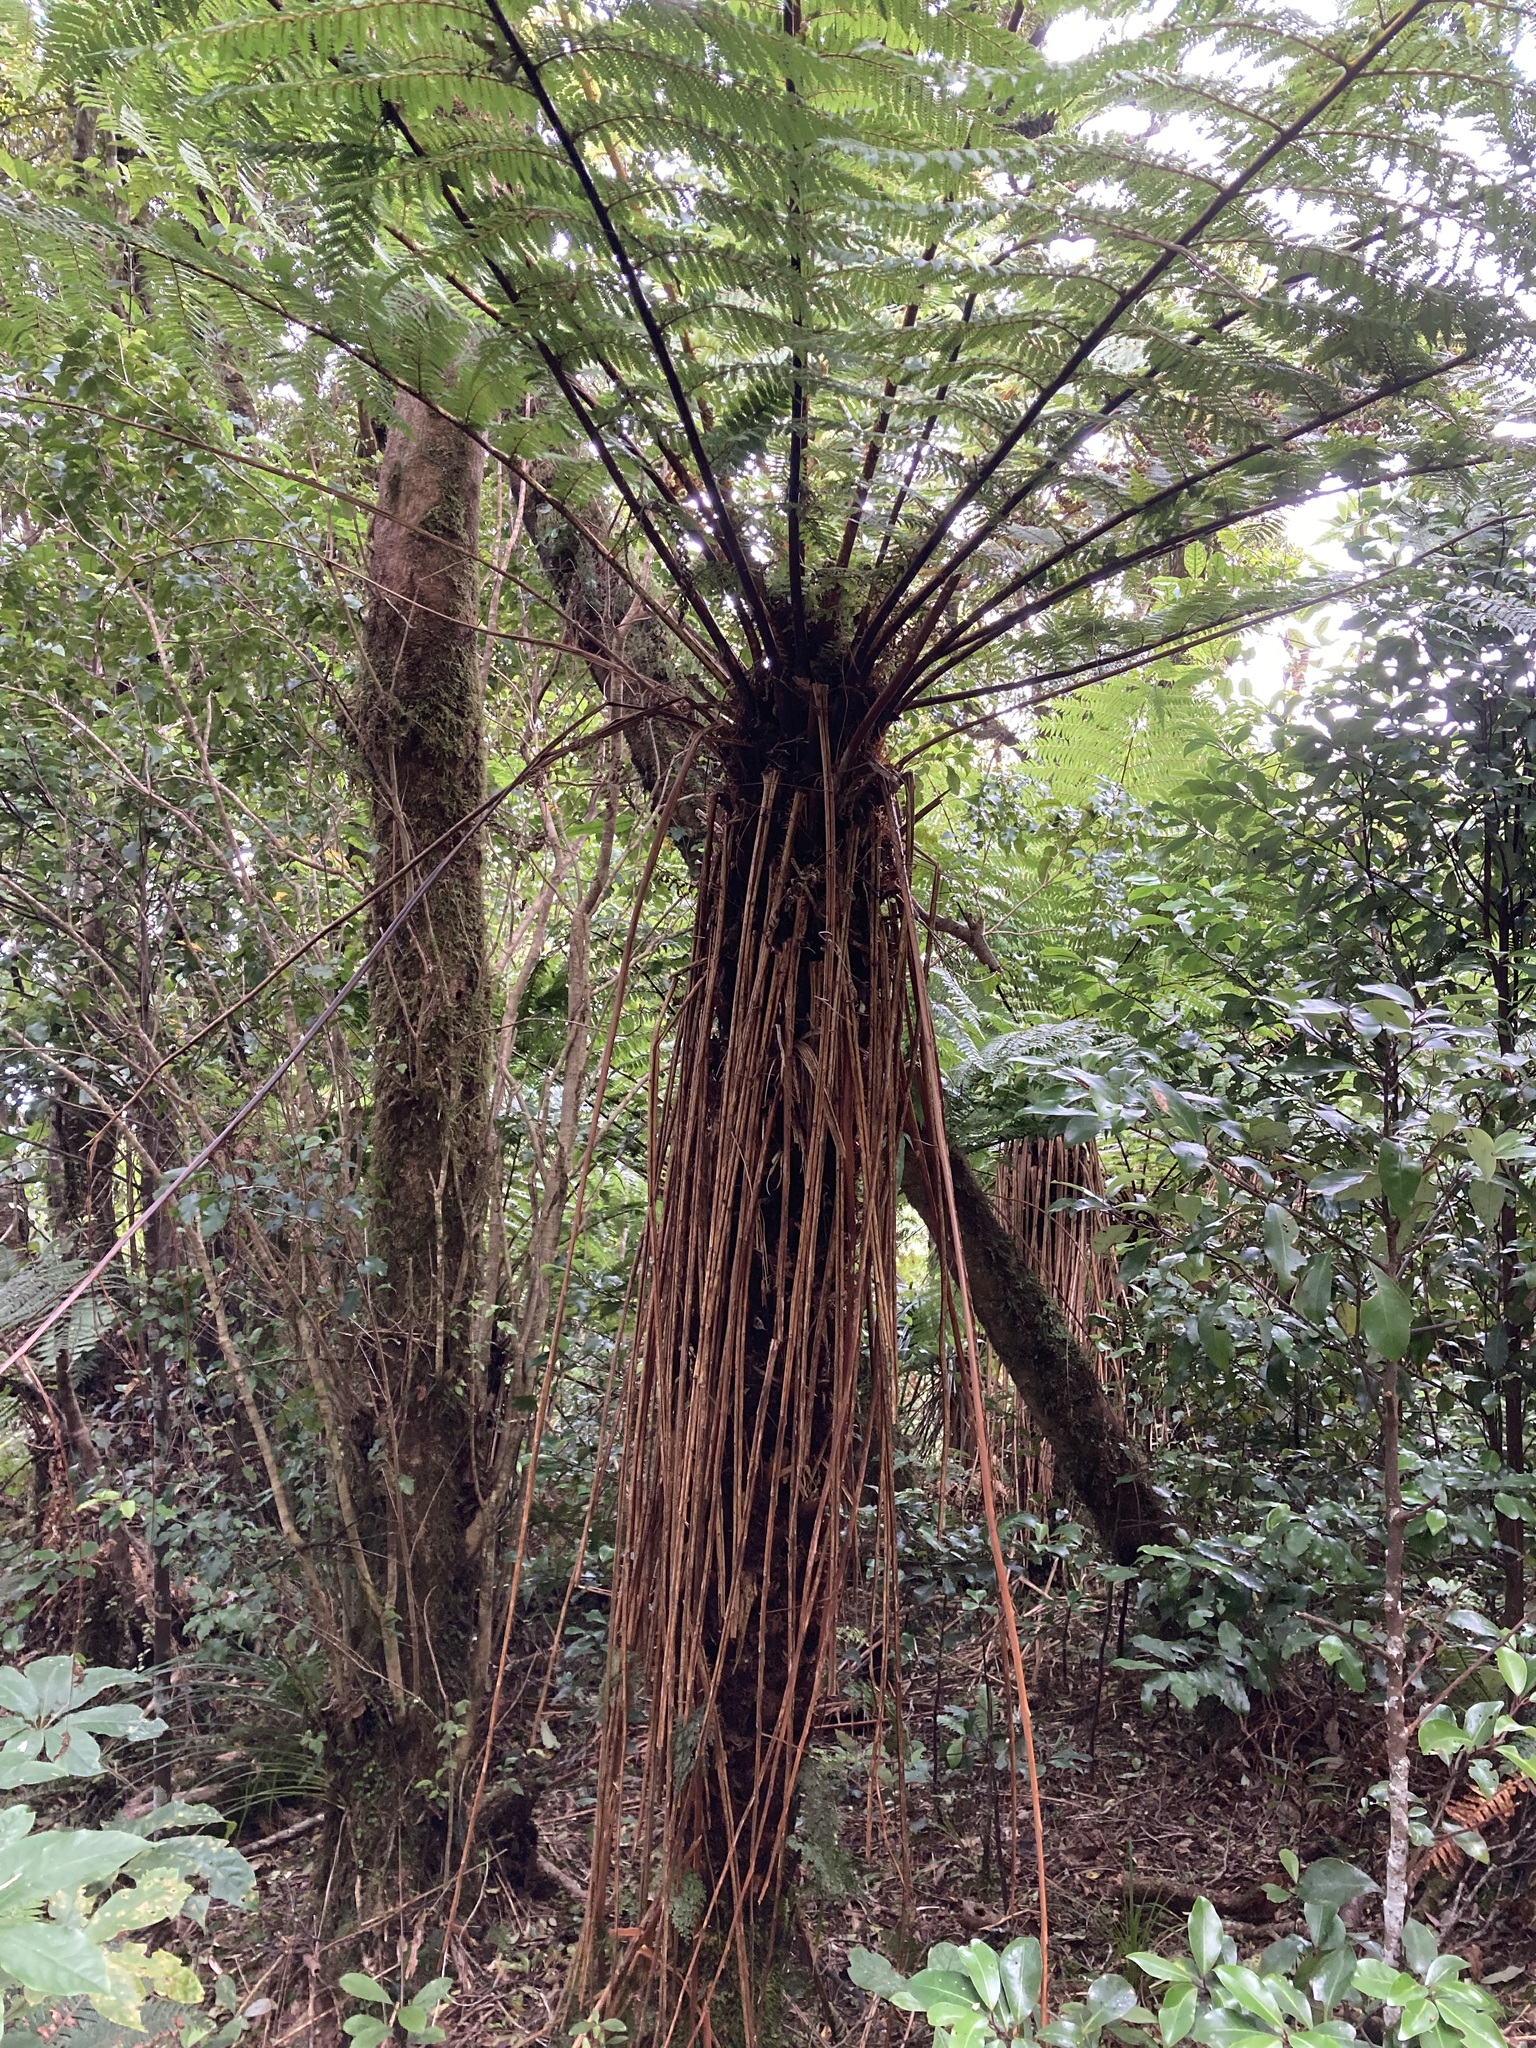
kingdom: Plantae
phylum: Tracheophyta
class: Polypodiopsida
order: Cyatheales
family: Cyatheaceae
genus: Alsophila
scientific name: Alsophila smithii
